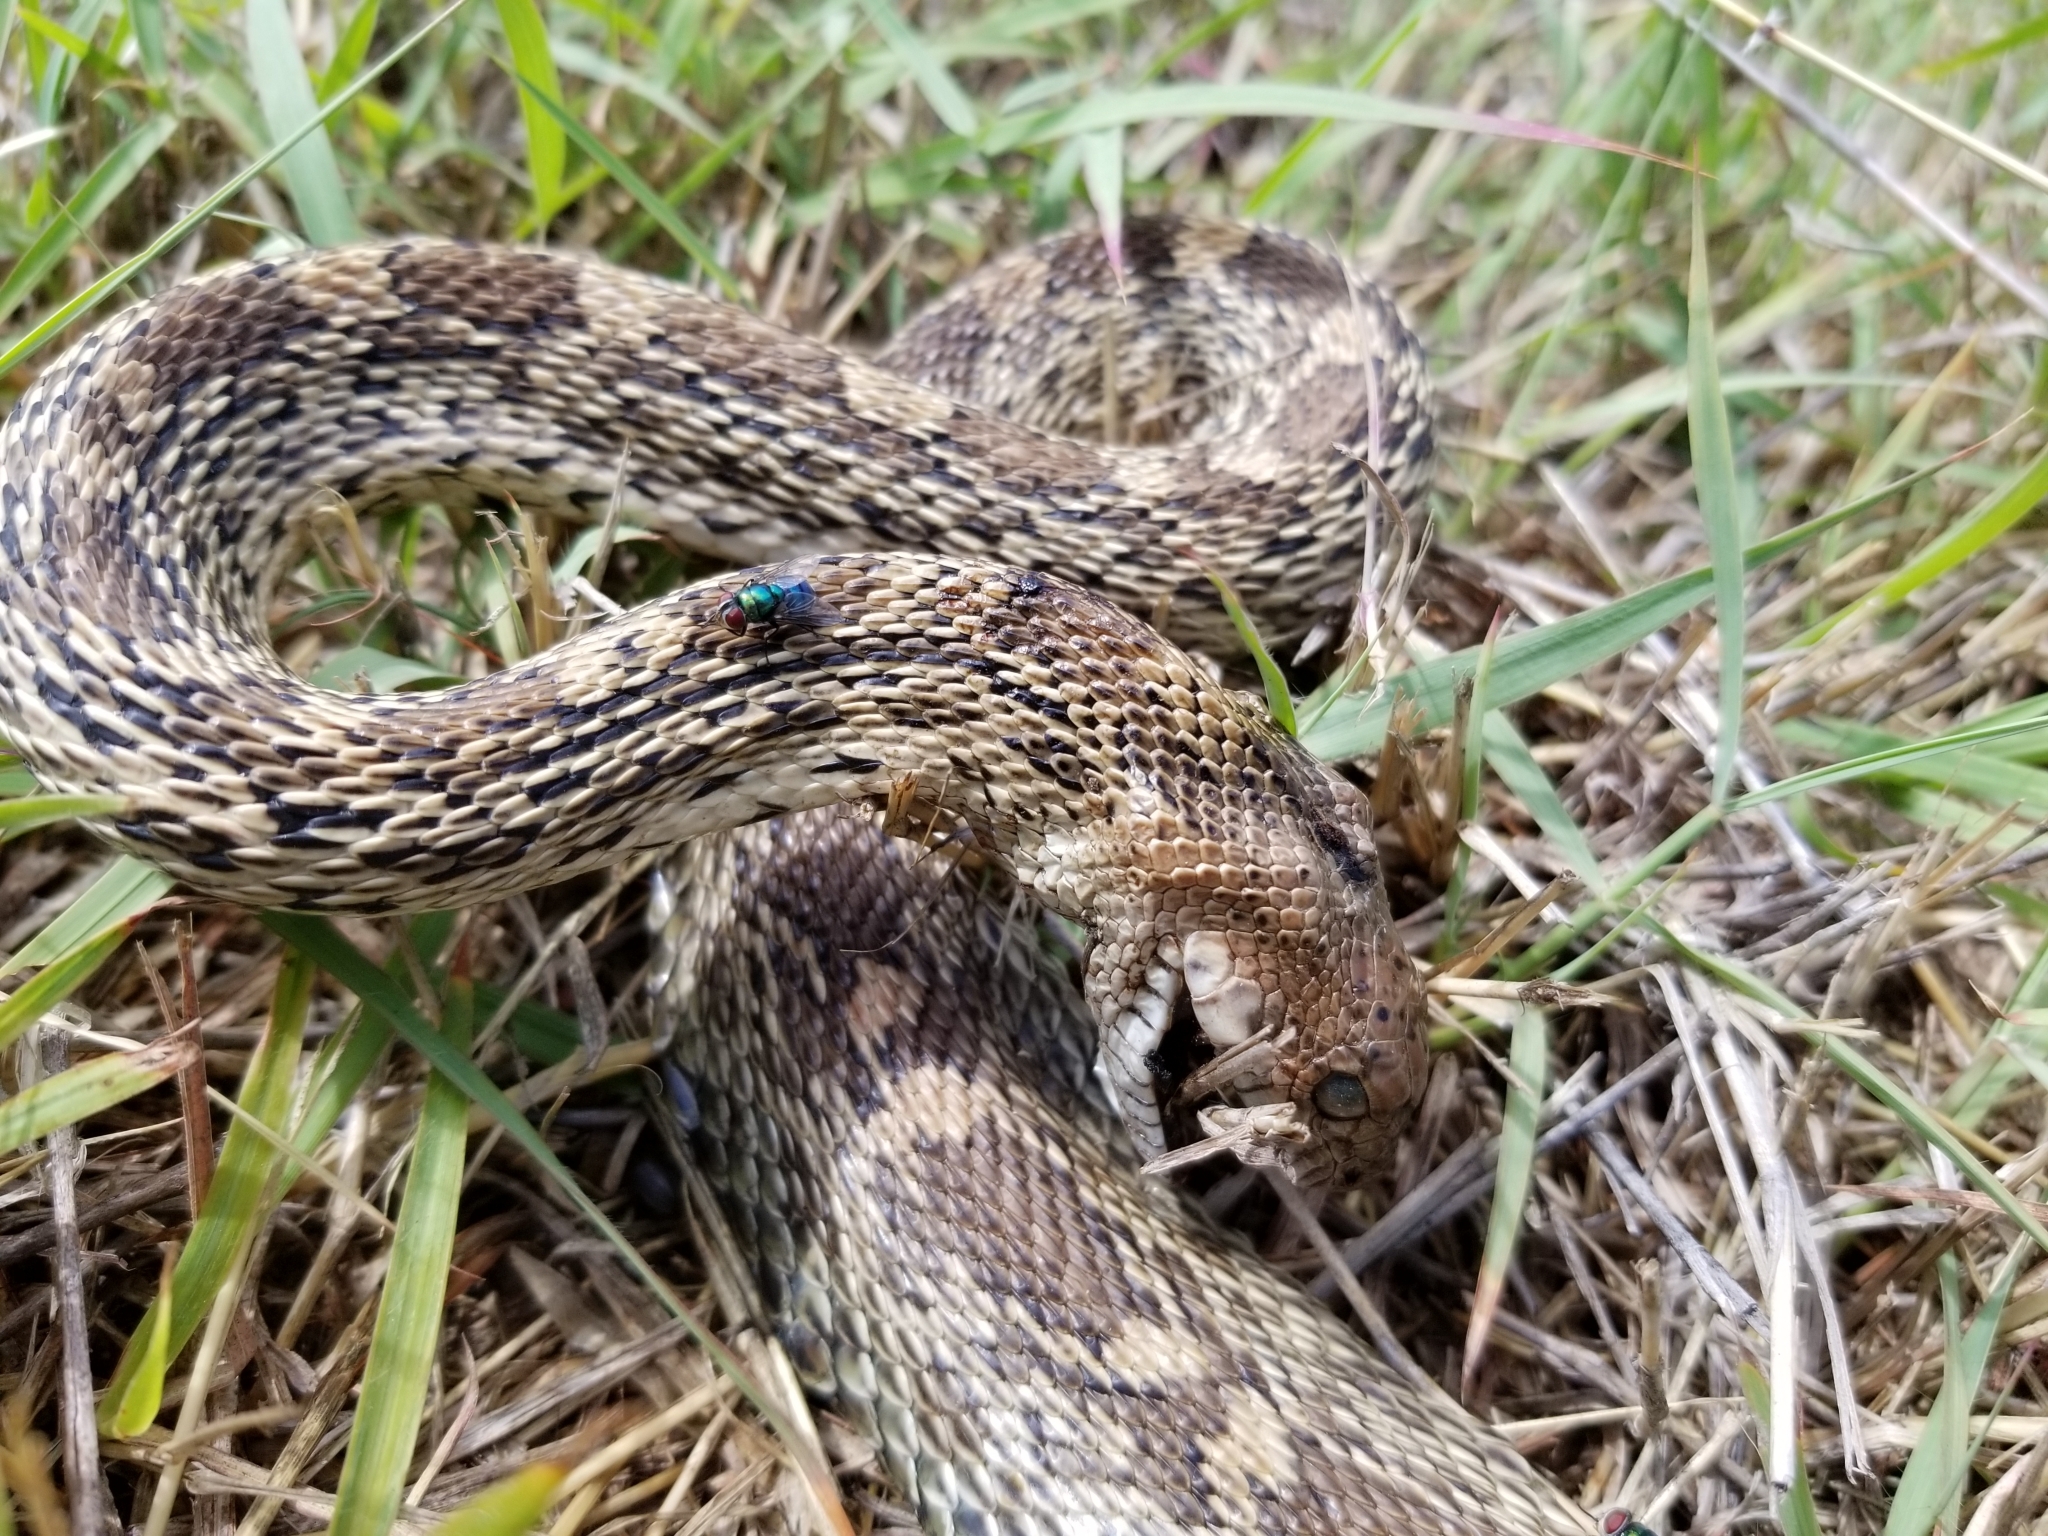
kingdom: Animalia
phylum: Chordata
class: Squamata
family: Colubridae
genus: Pituophis
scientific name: Pituophis catenifer
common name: Gopher snake
